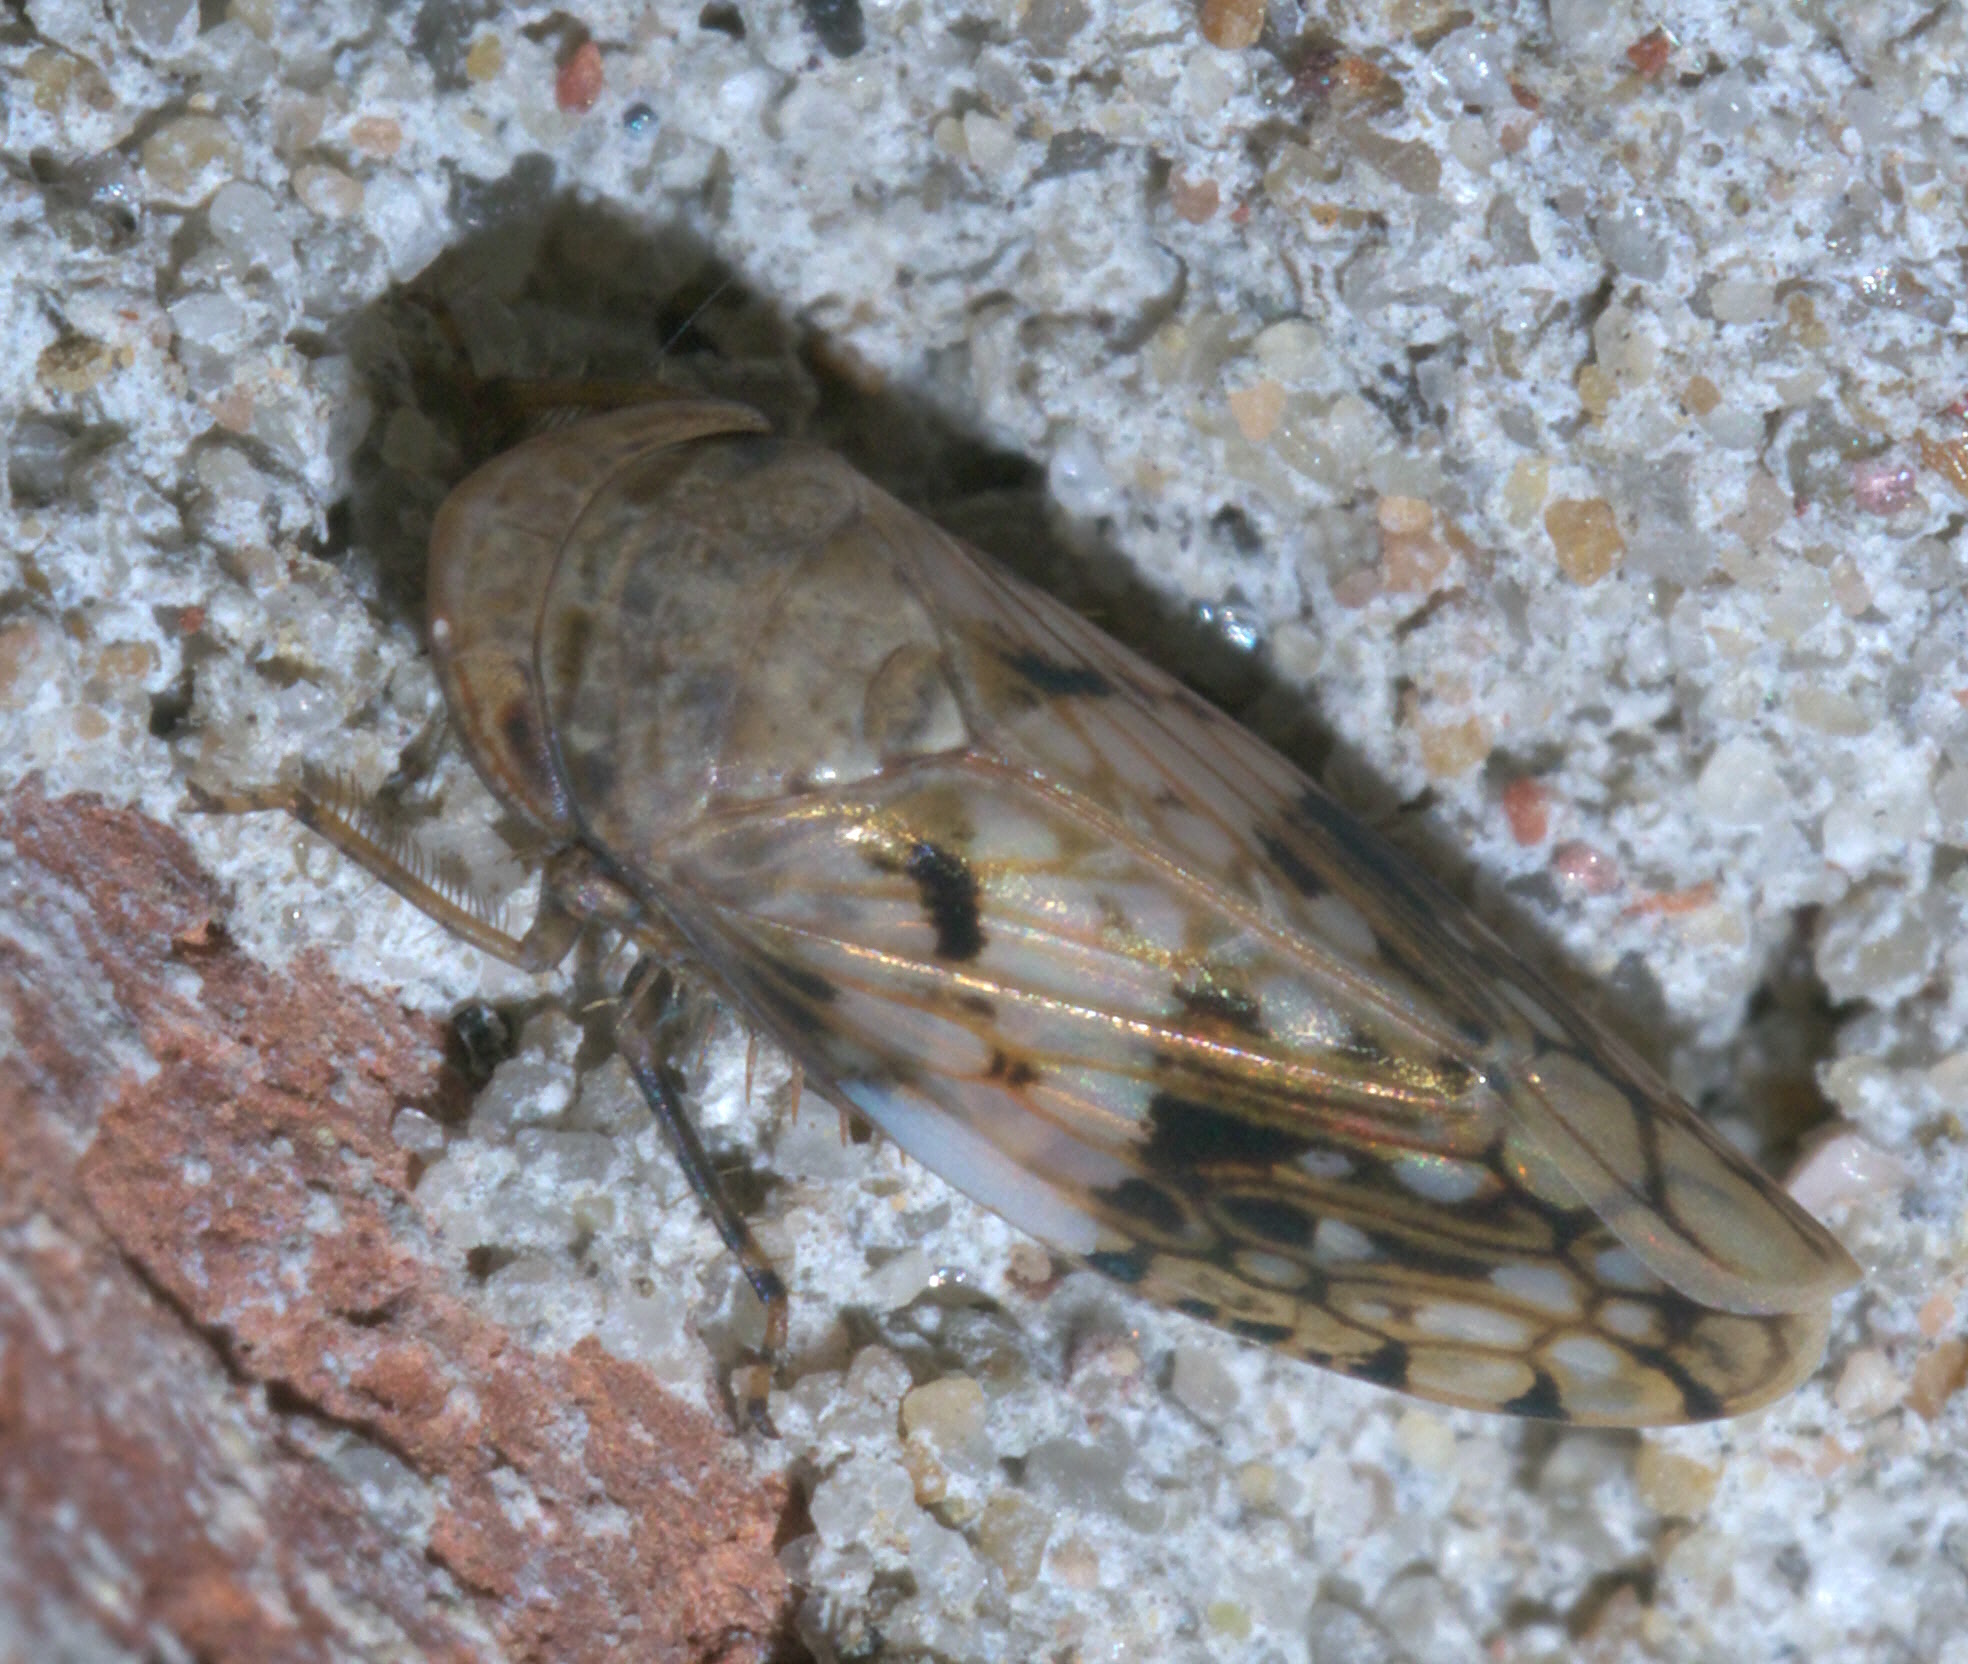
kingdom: Animalia
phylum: Arthropoda
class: Insecta
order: Hemiptera
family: Cicadellidae
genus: Menosoma
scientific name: Menosoma cinctum
